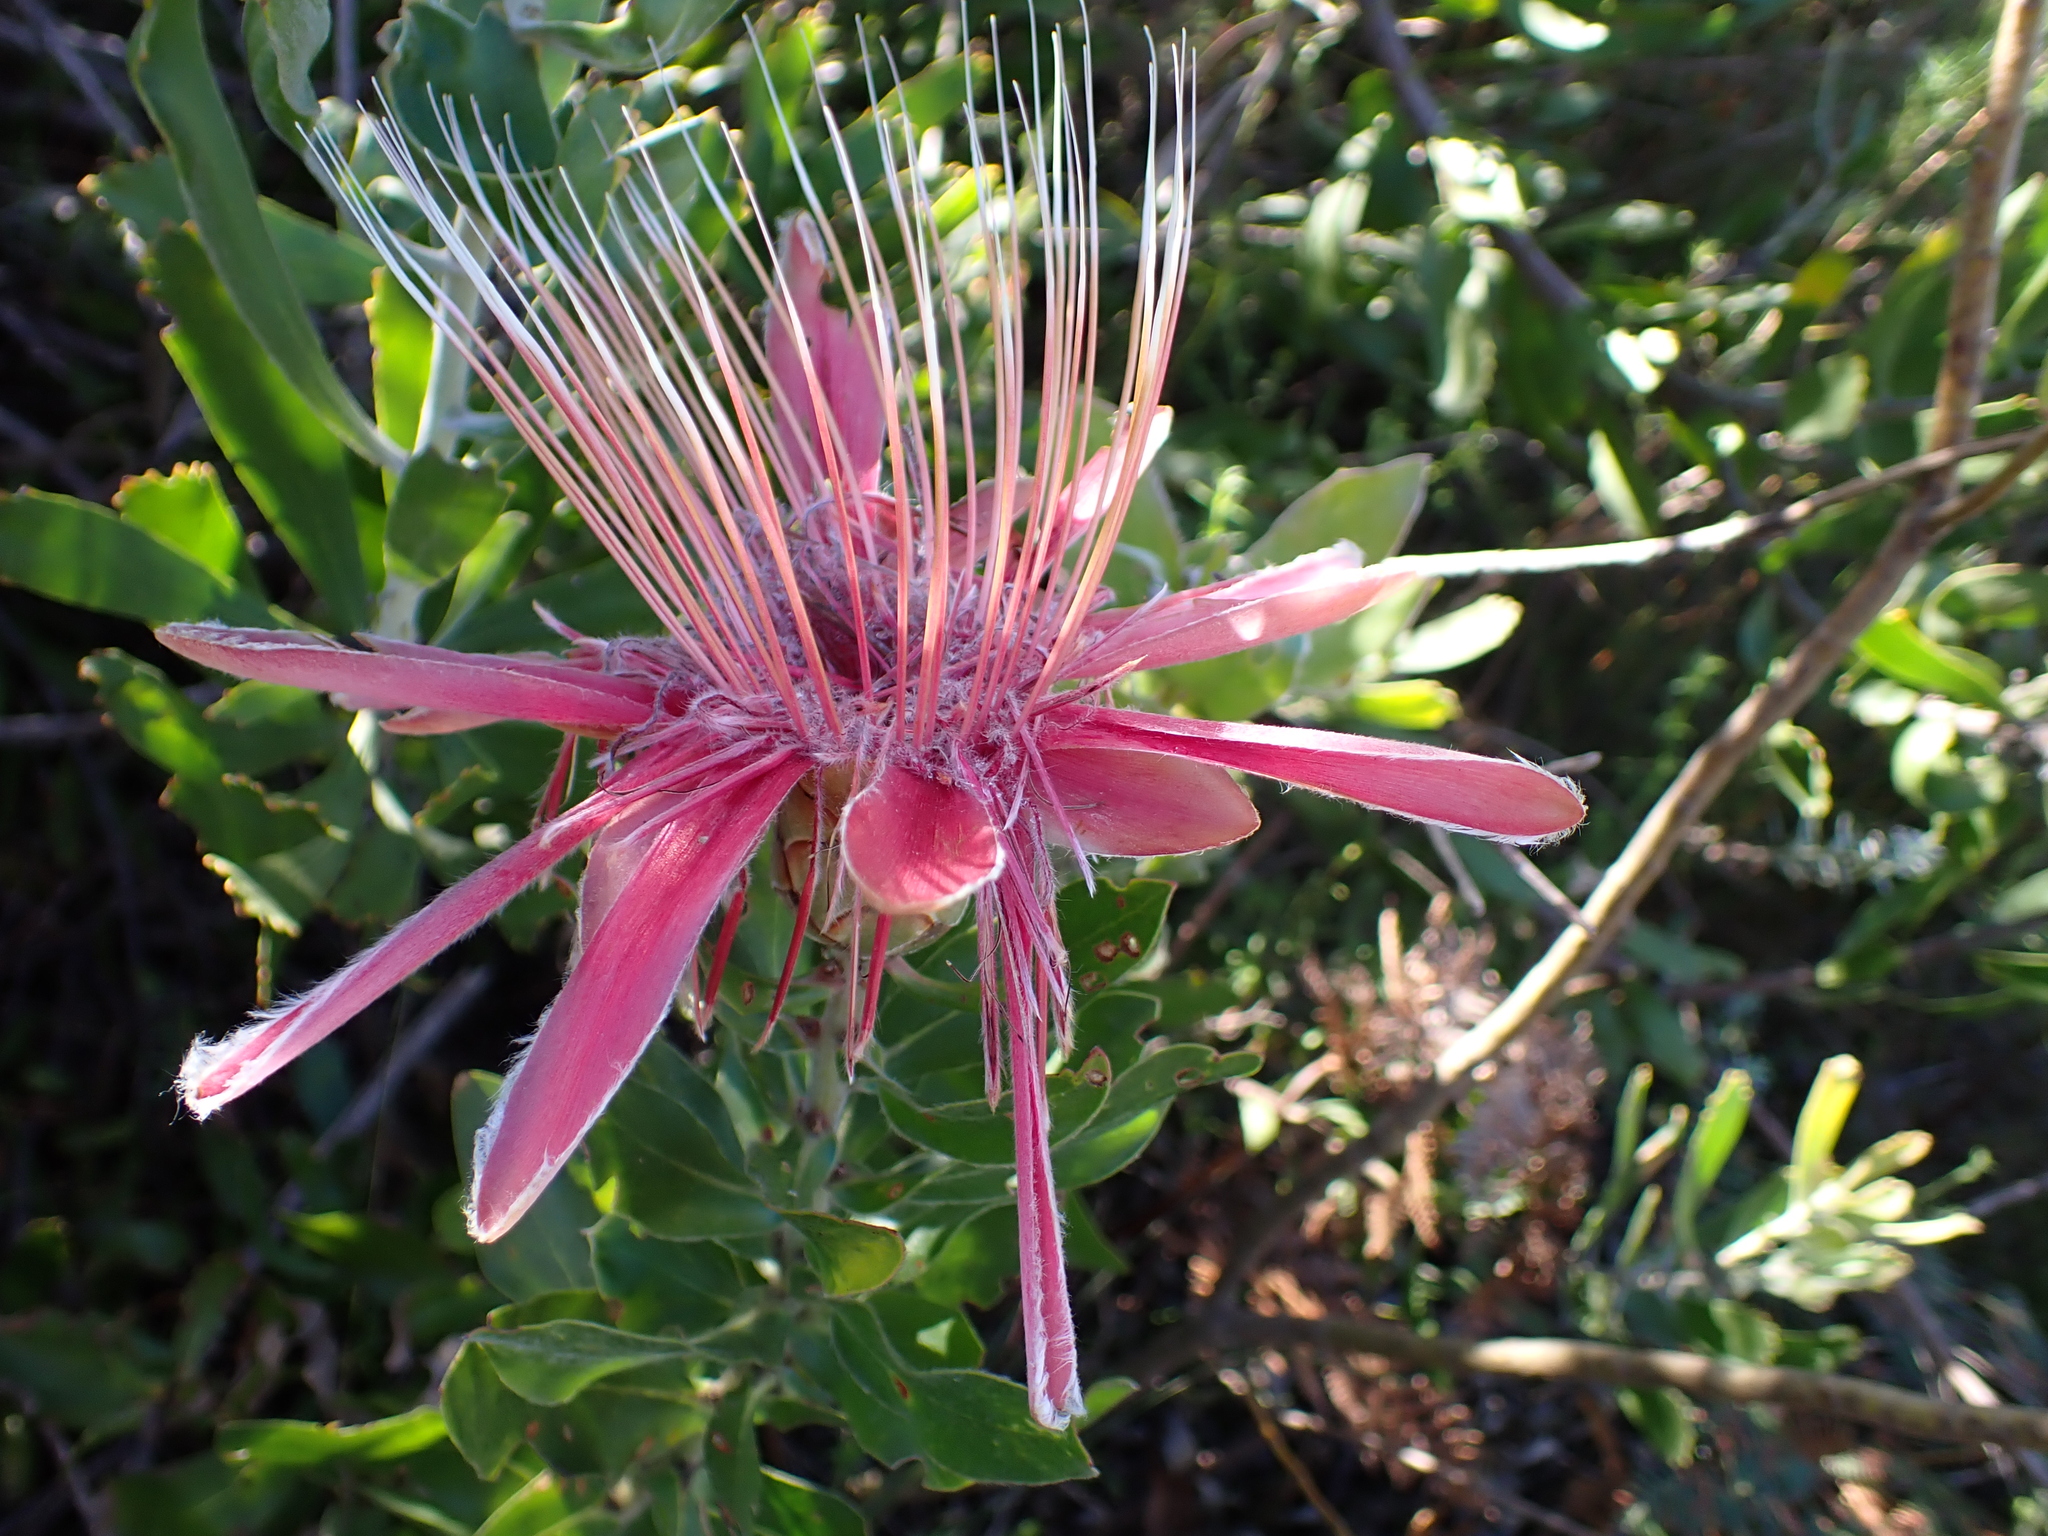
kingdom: Plantae
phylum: Tracheophyta
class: Magnoliopsida
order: Proteales
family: Proteaceae
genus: Protea
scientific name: Protea aurea
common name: Shuttlecock sugarbush
